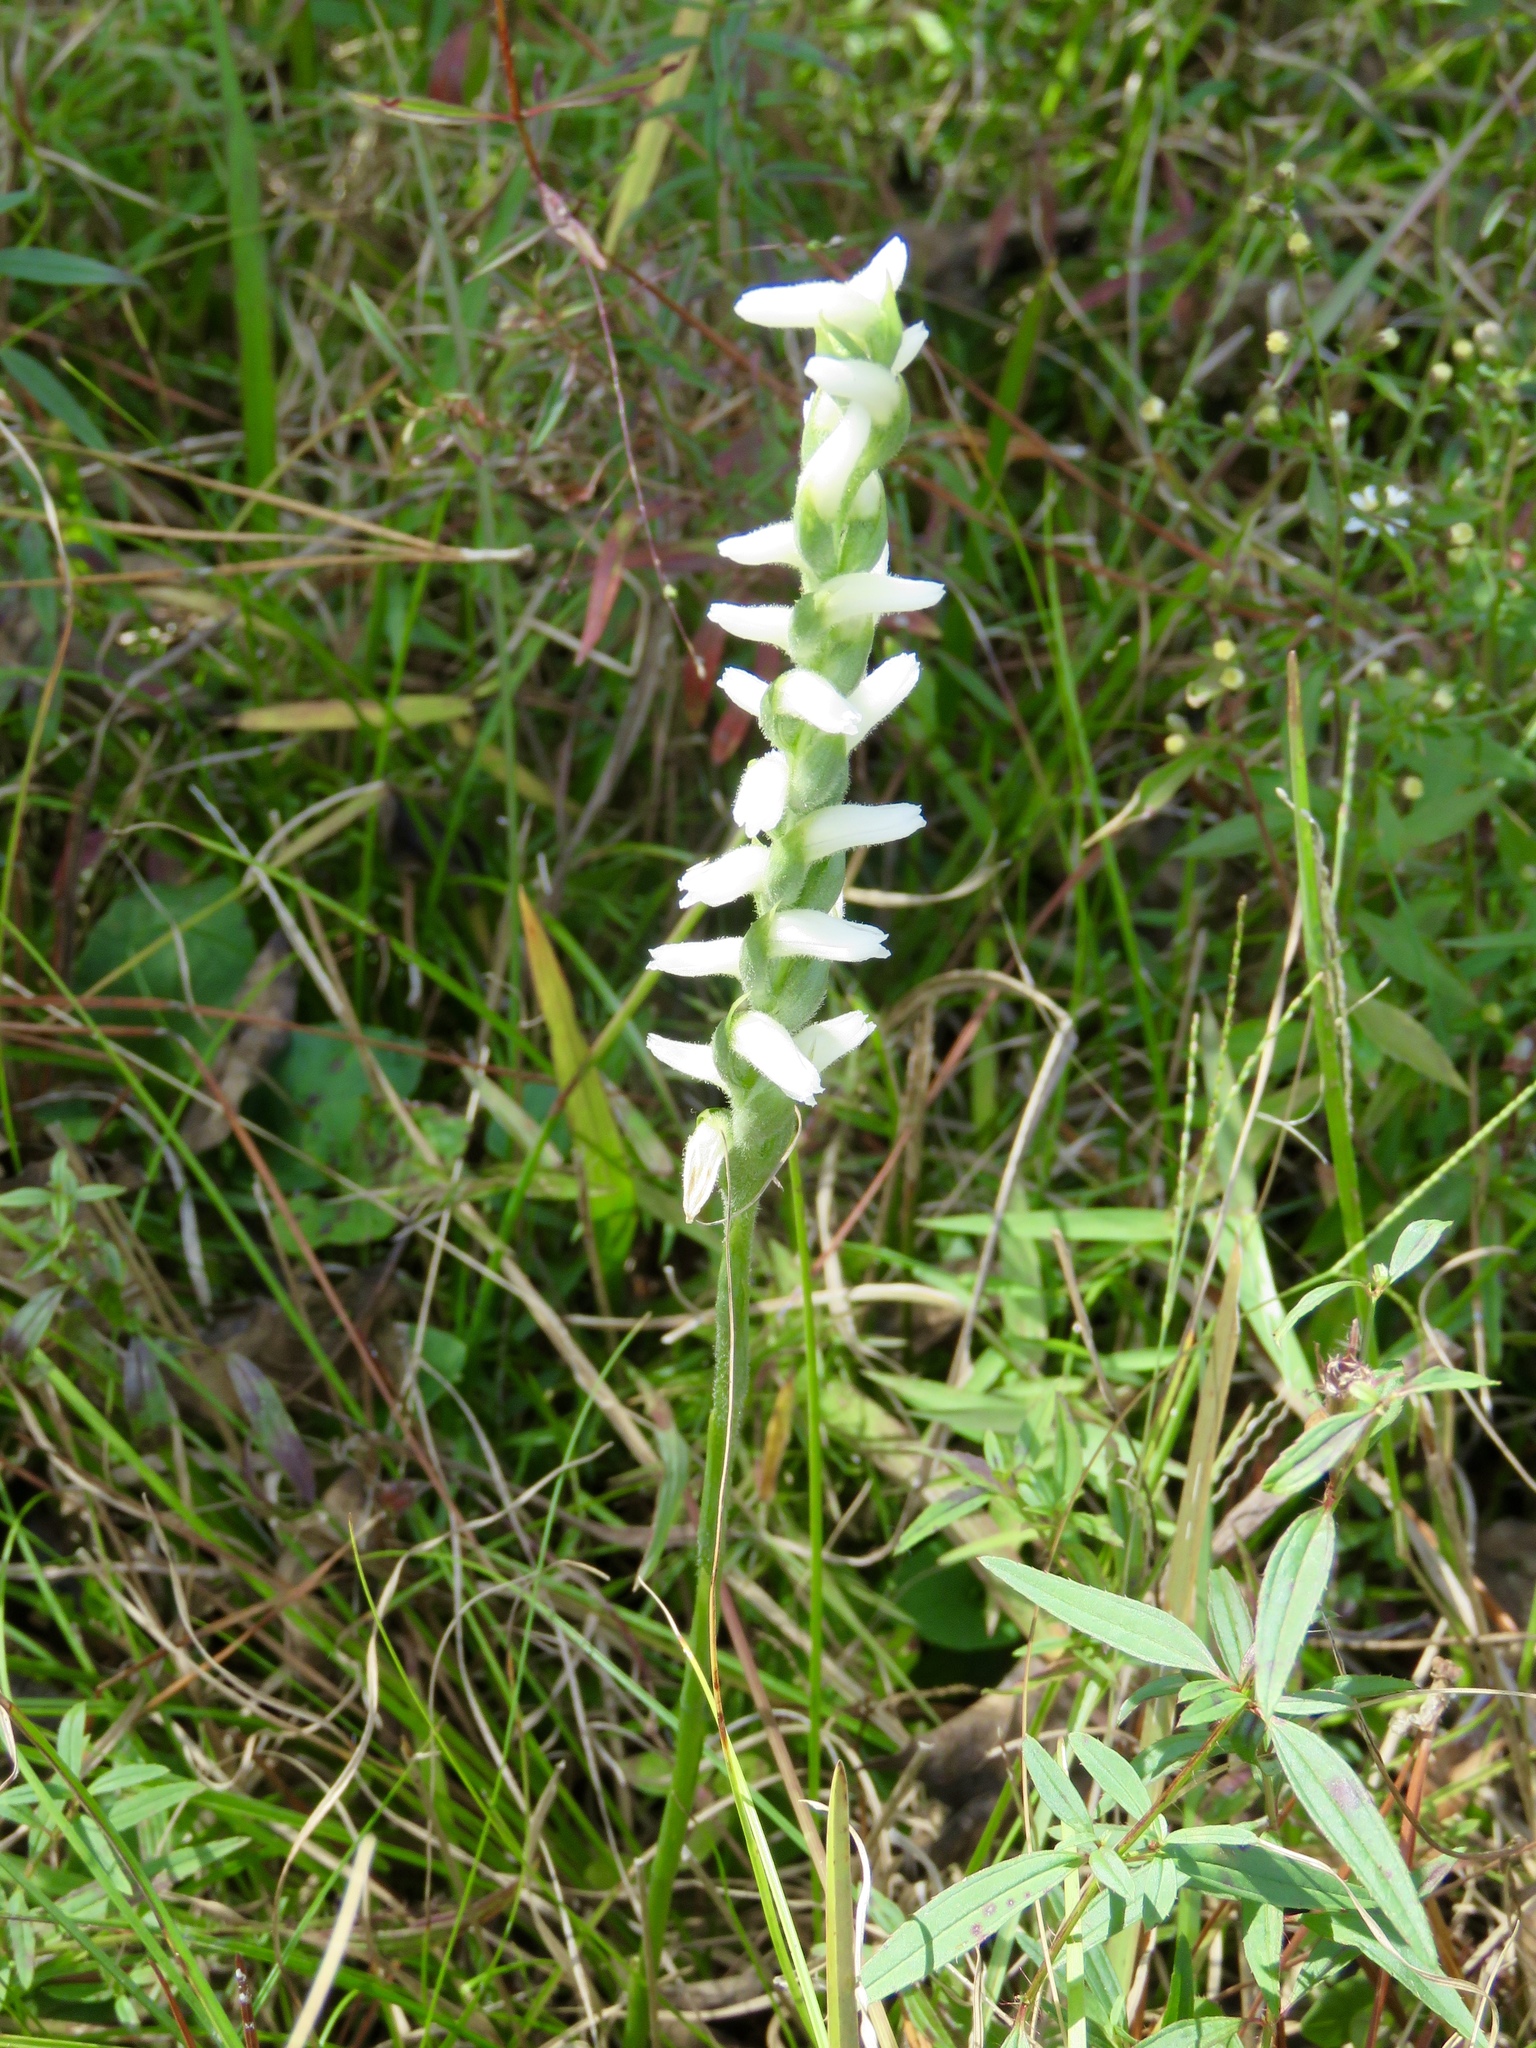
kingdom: Plantae
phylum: Tracheophyta
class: Liliopsida
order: Asparagales
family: Orchidaceae
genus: Spiranthes
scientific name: Spiranthes cernua
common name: Dropping ladies'-tresses
